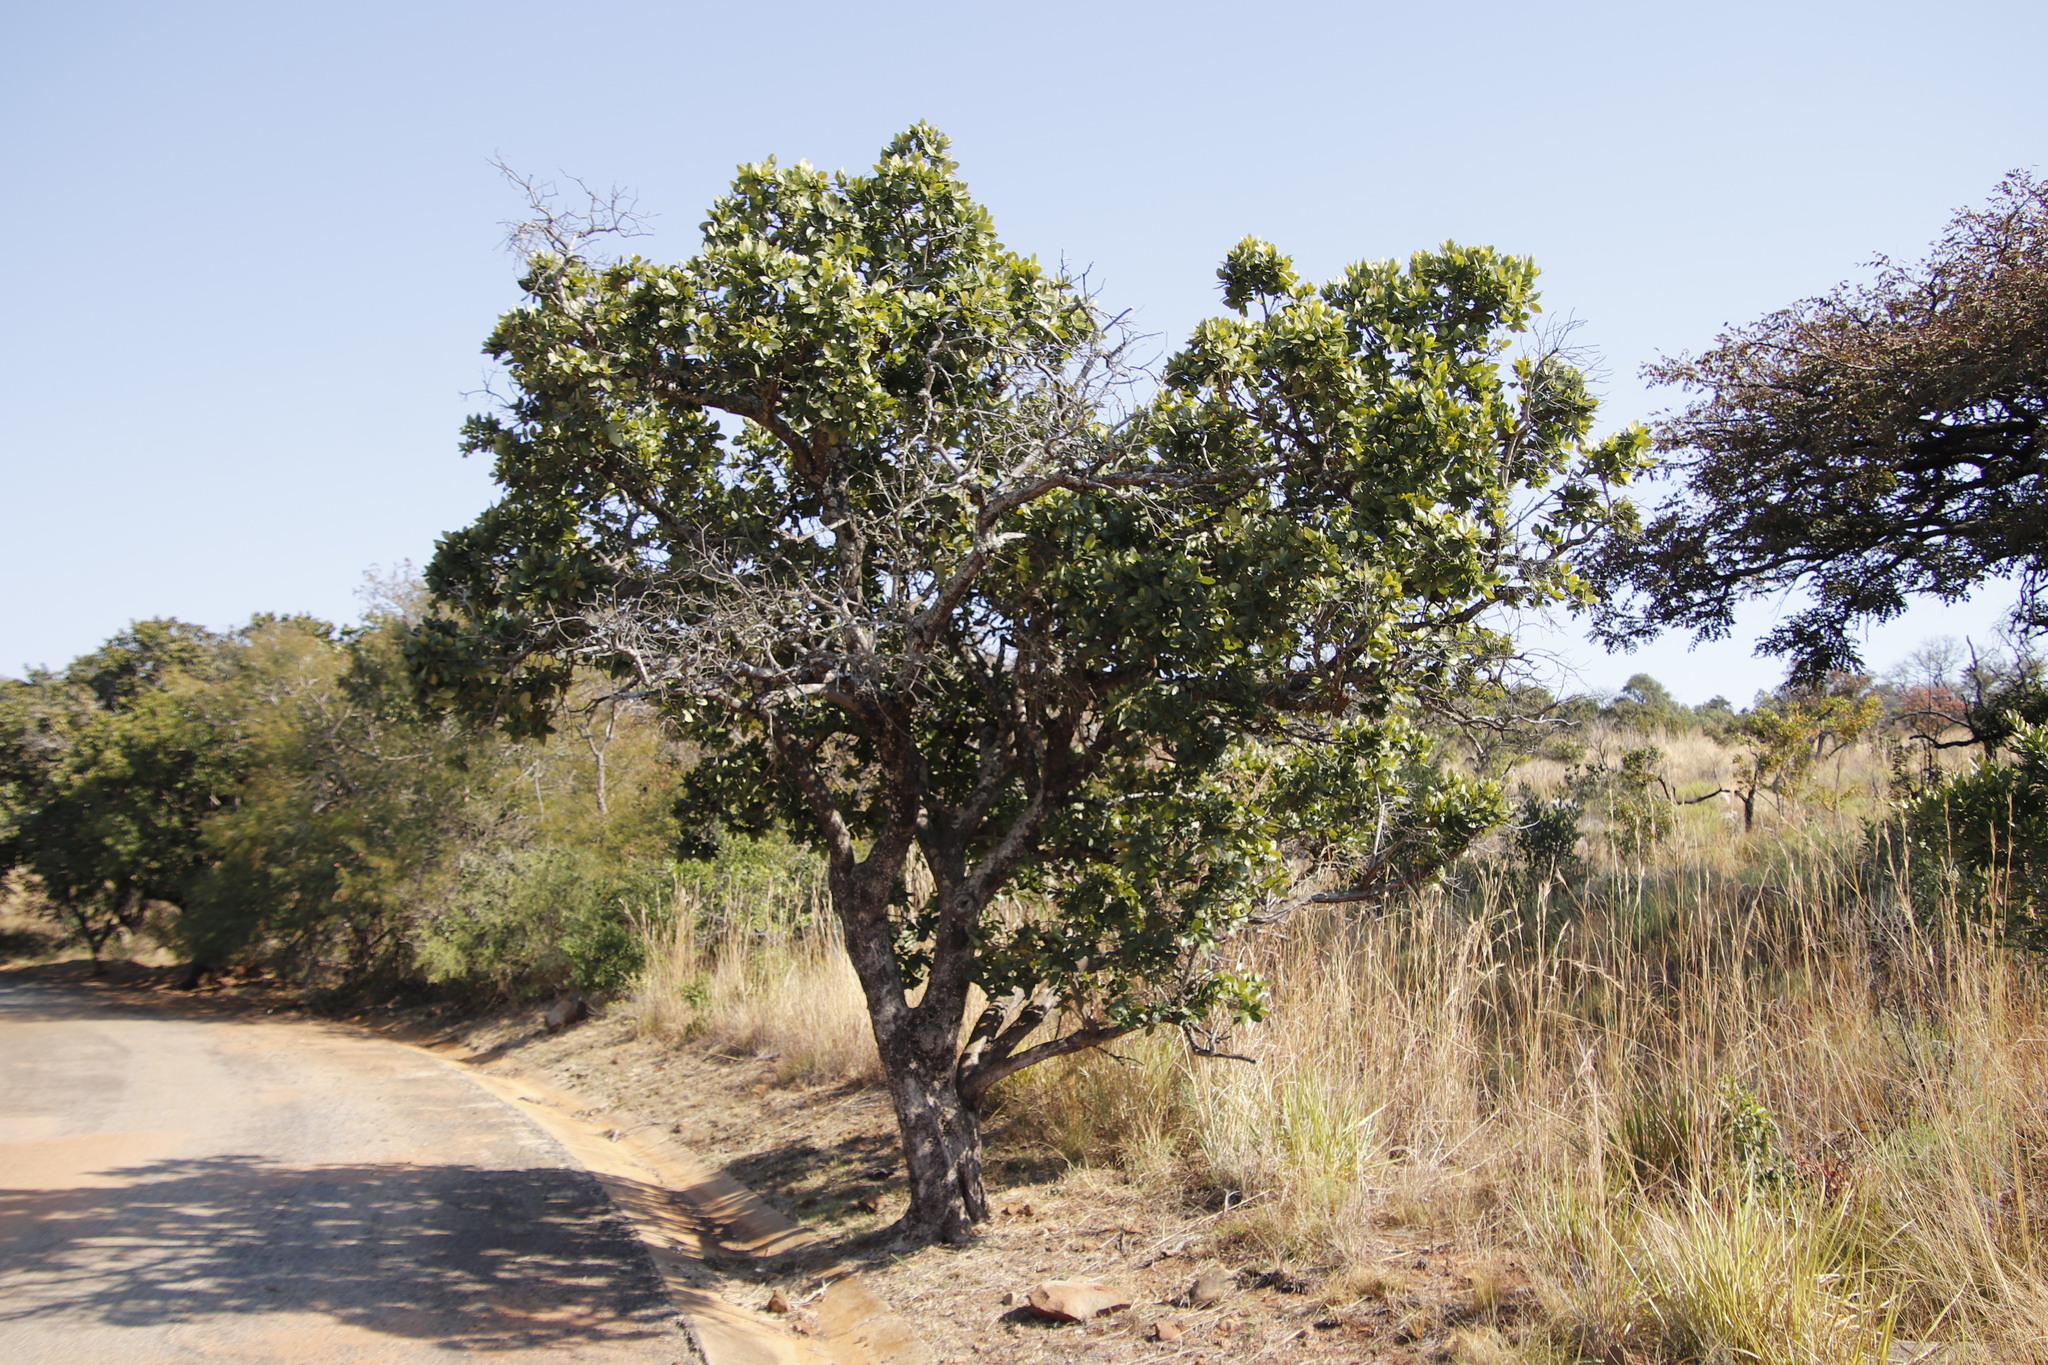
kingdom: Plantae
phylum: Tracheophyta
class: Magnoliopsida
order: Myrtales
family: Myrtaceae
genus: Syzygium
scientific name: Syzygium cordatum
